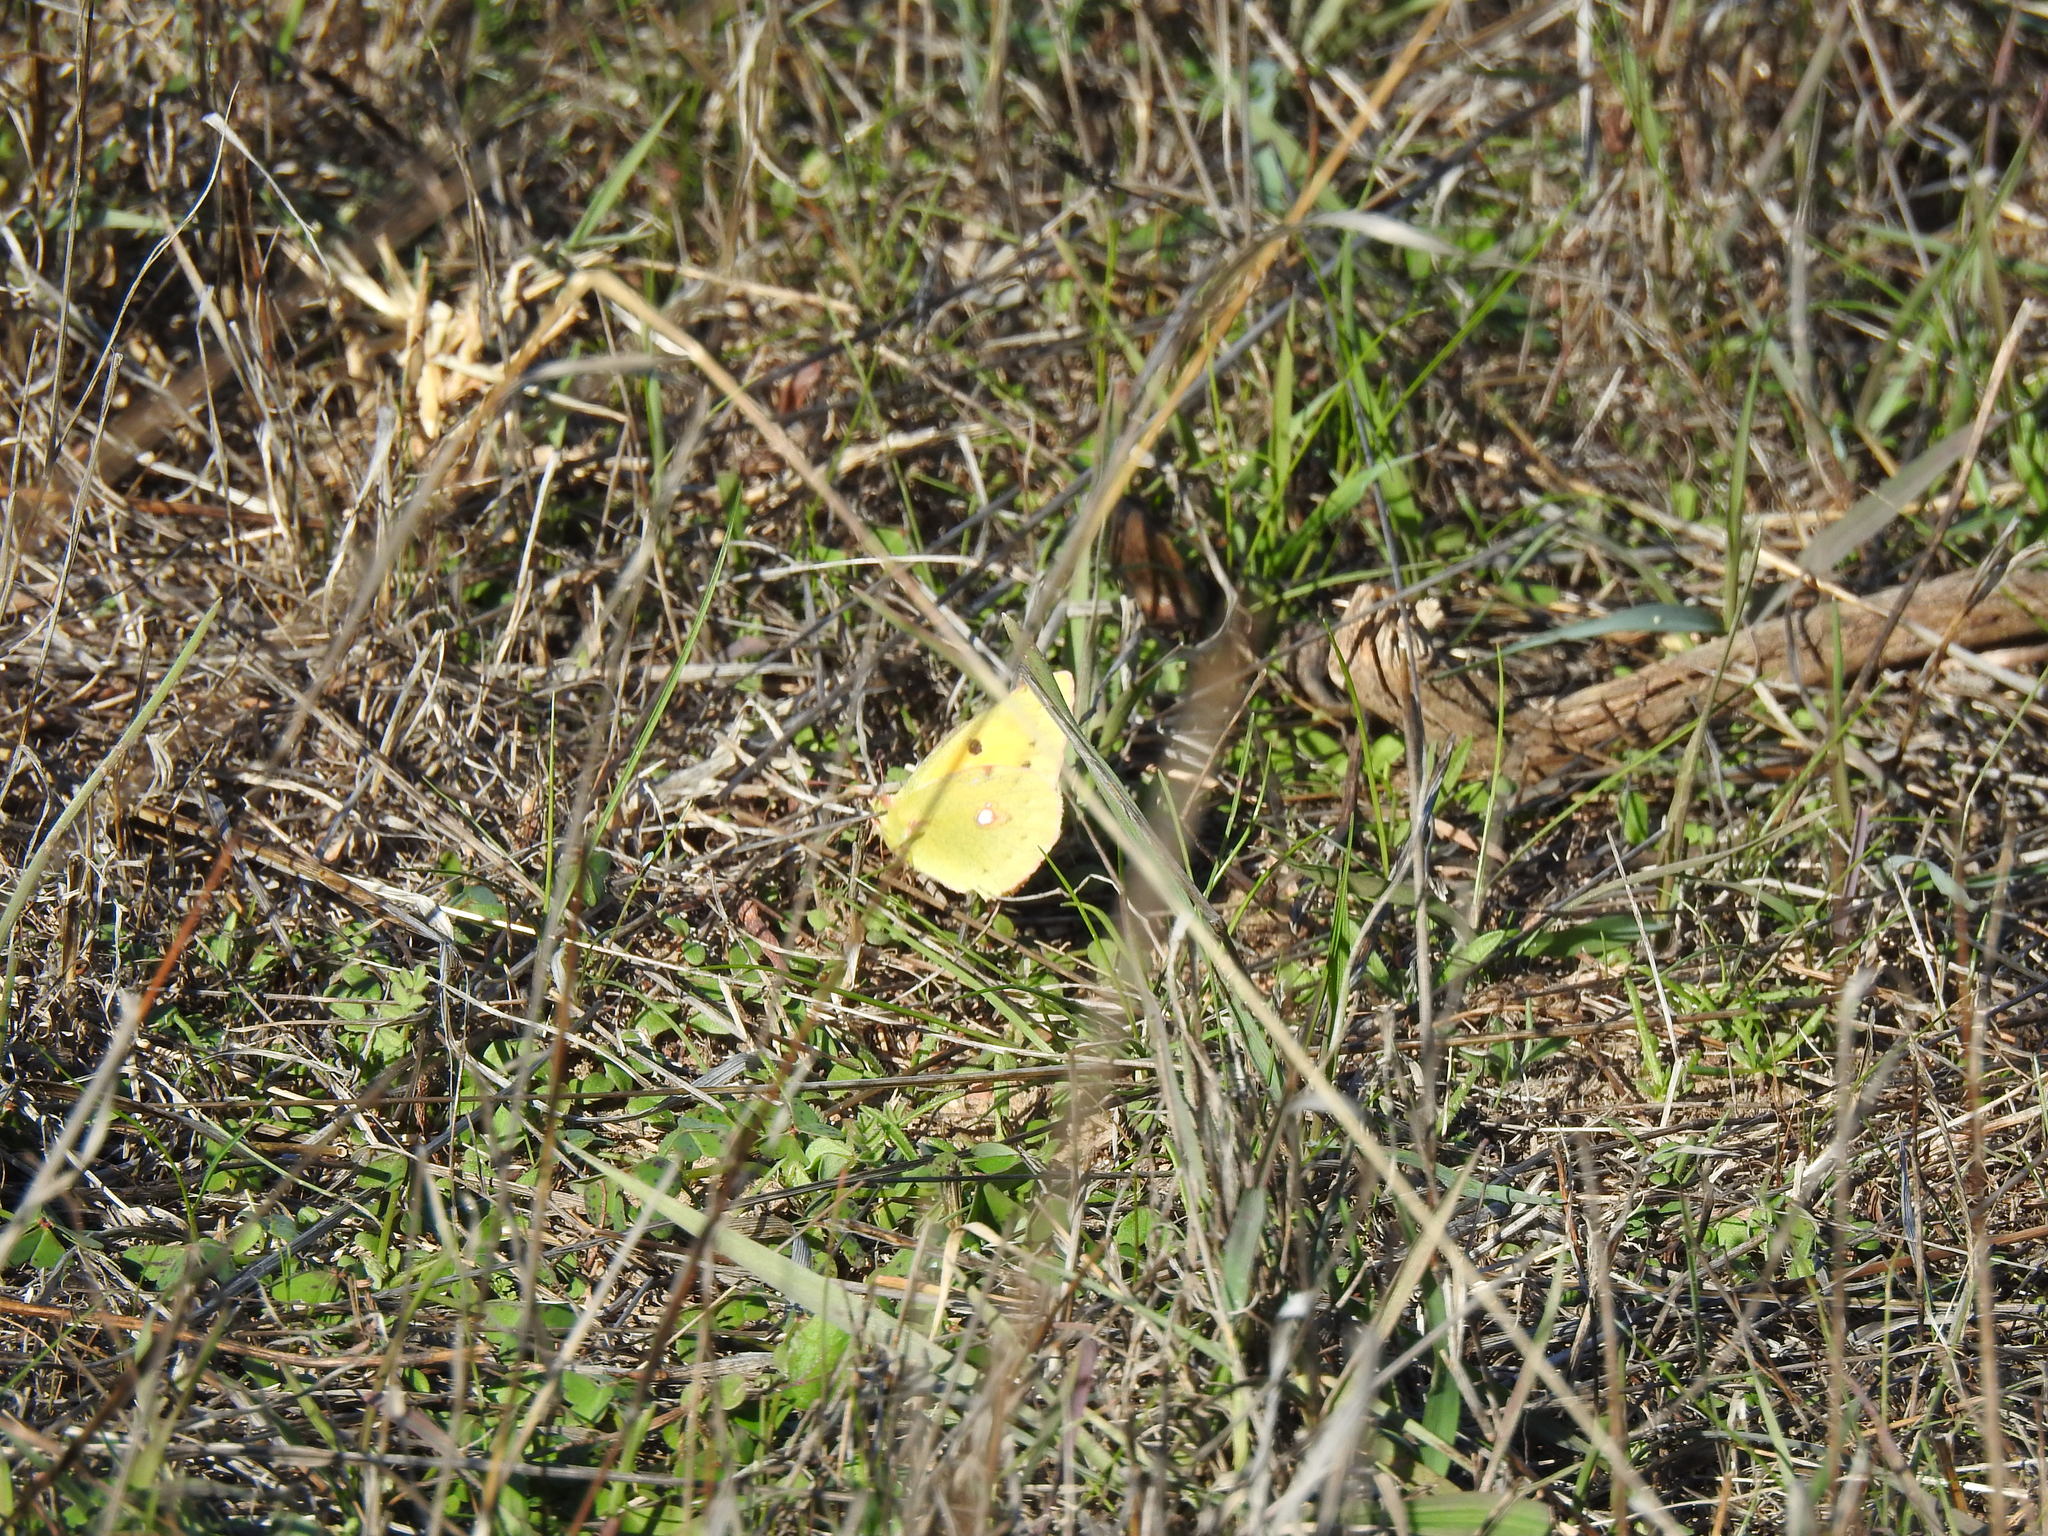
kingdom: Animalia
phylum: Arthropoda
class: Insecta
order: Lepidoptera
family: Pieridae
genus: Colias
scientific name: Colias croceus
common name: Clouded yellow
